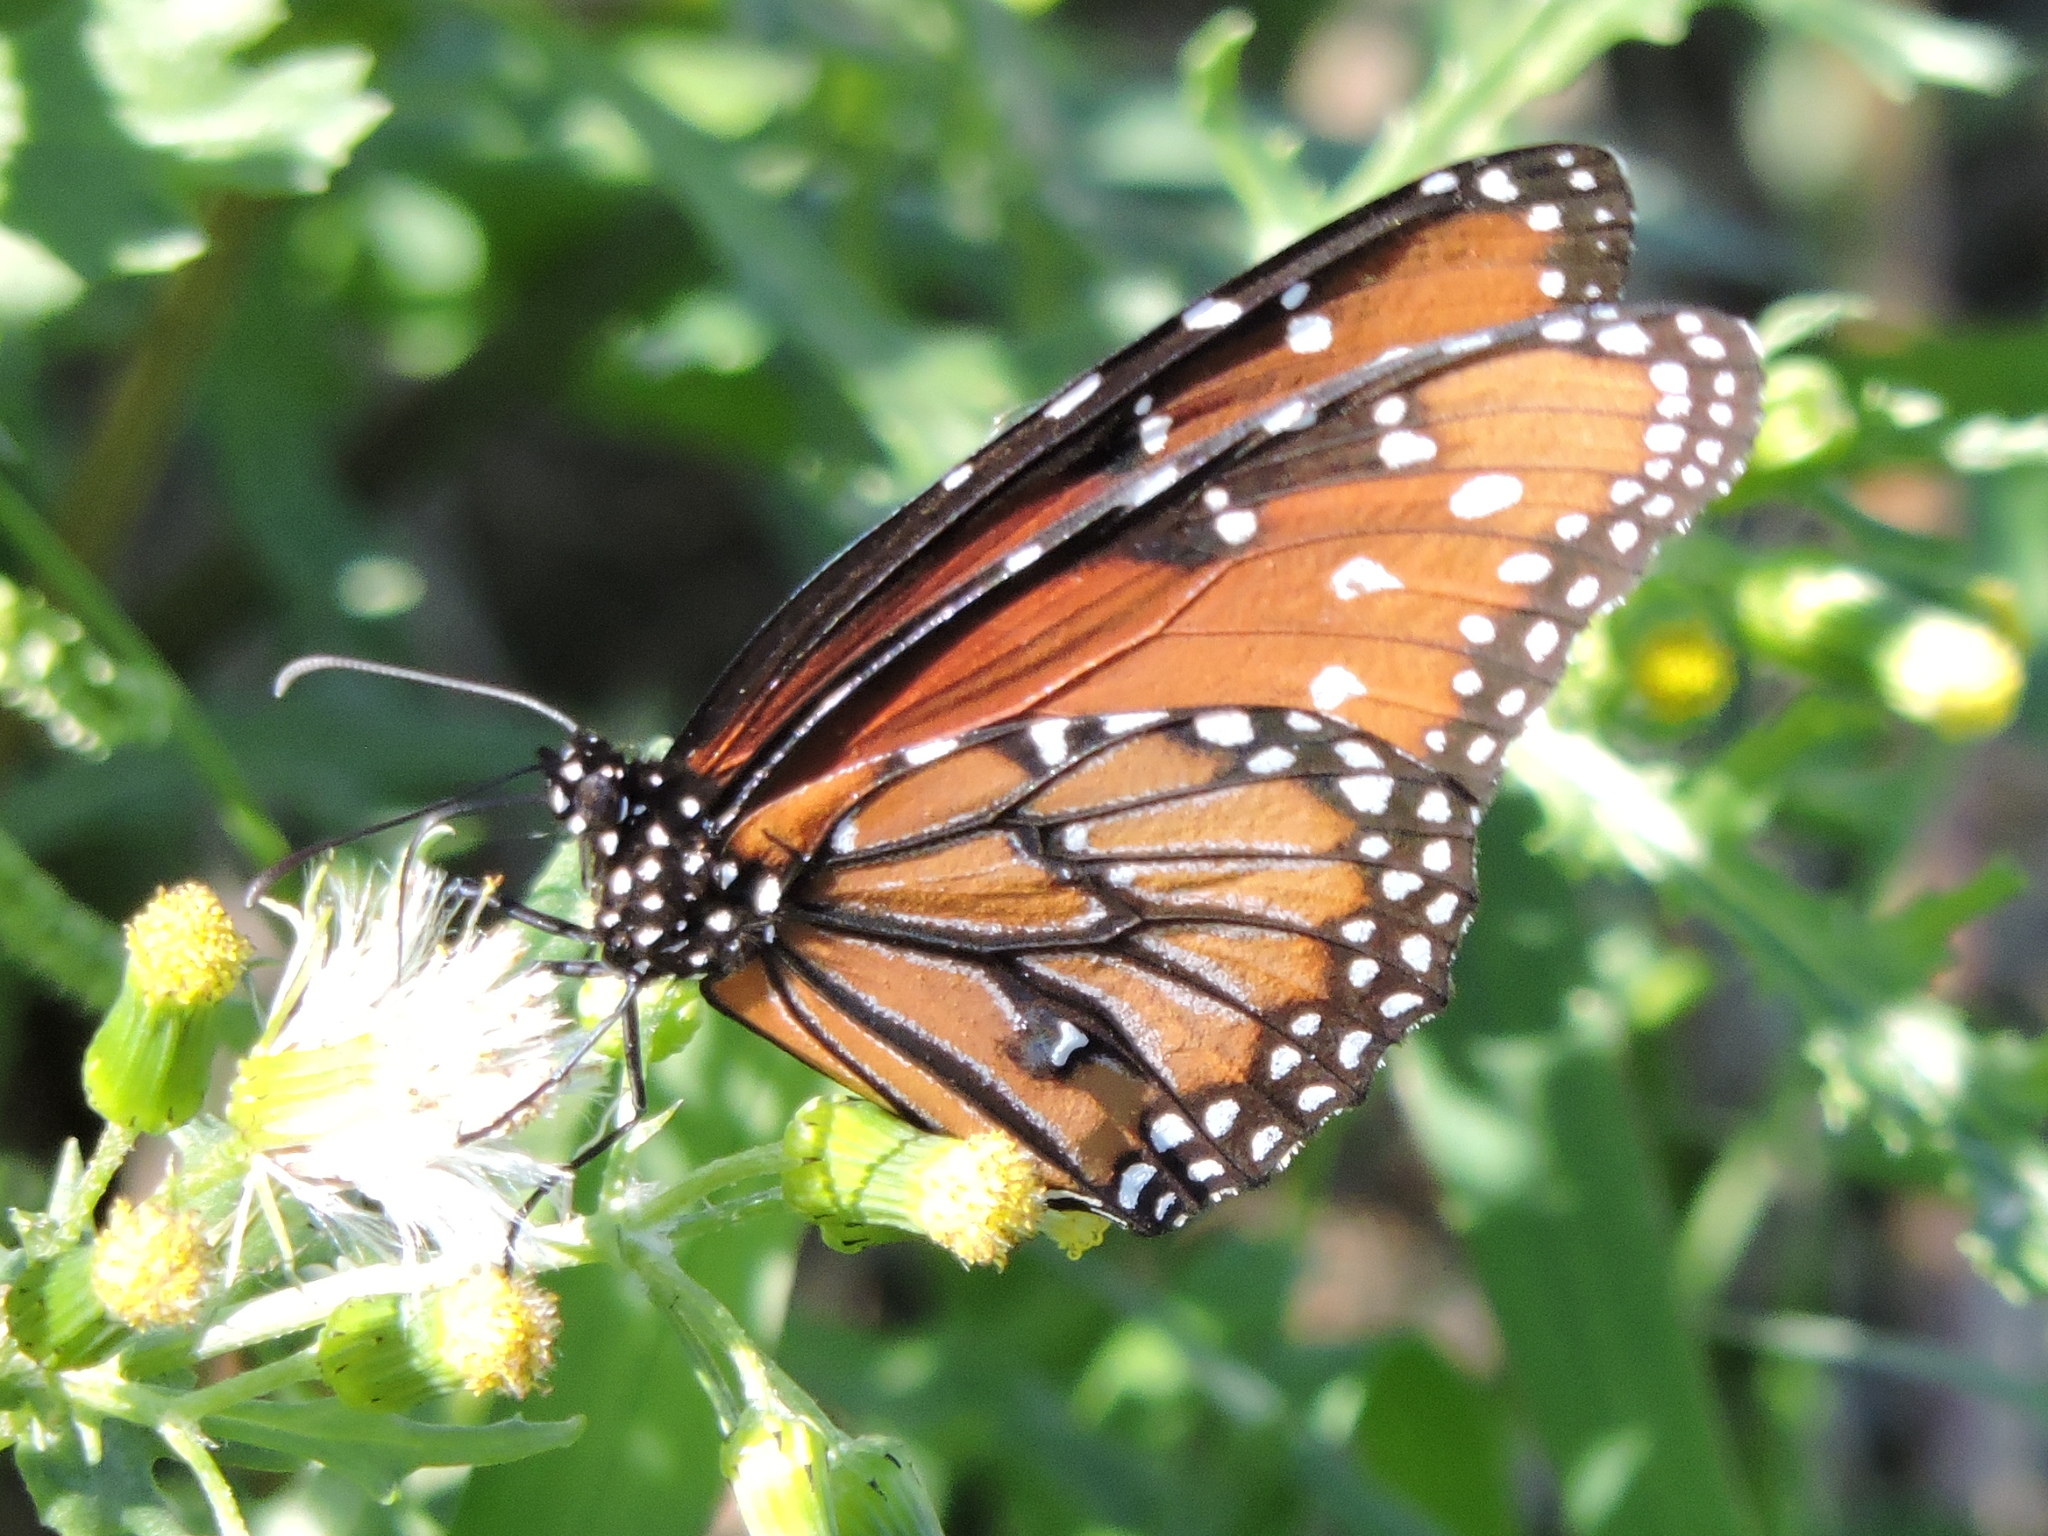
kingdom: Animalia
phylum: Arthropoda
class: Insecta
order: Lepidoptera
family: Nymphalidae
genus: Danaus
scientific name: Danaus gilippus
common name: Queen
